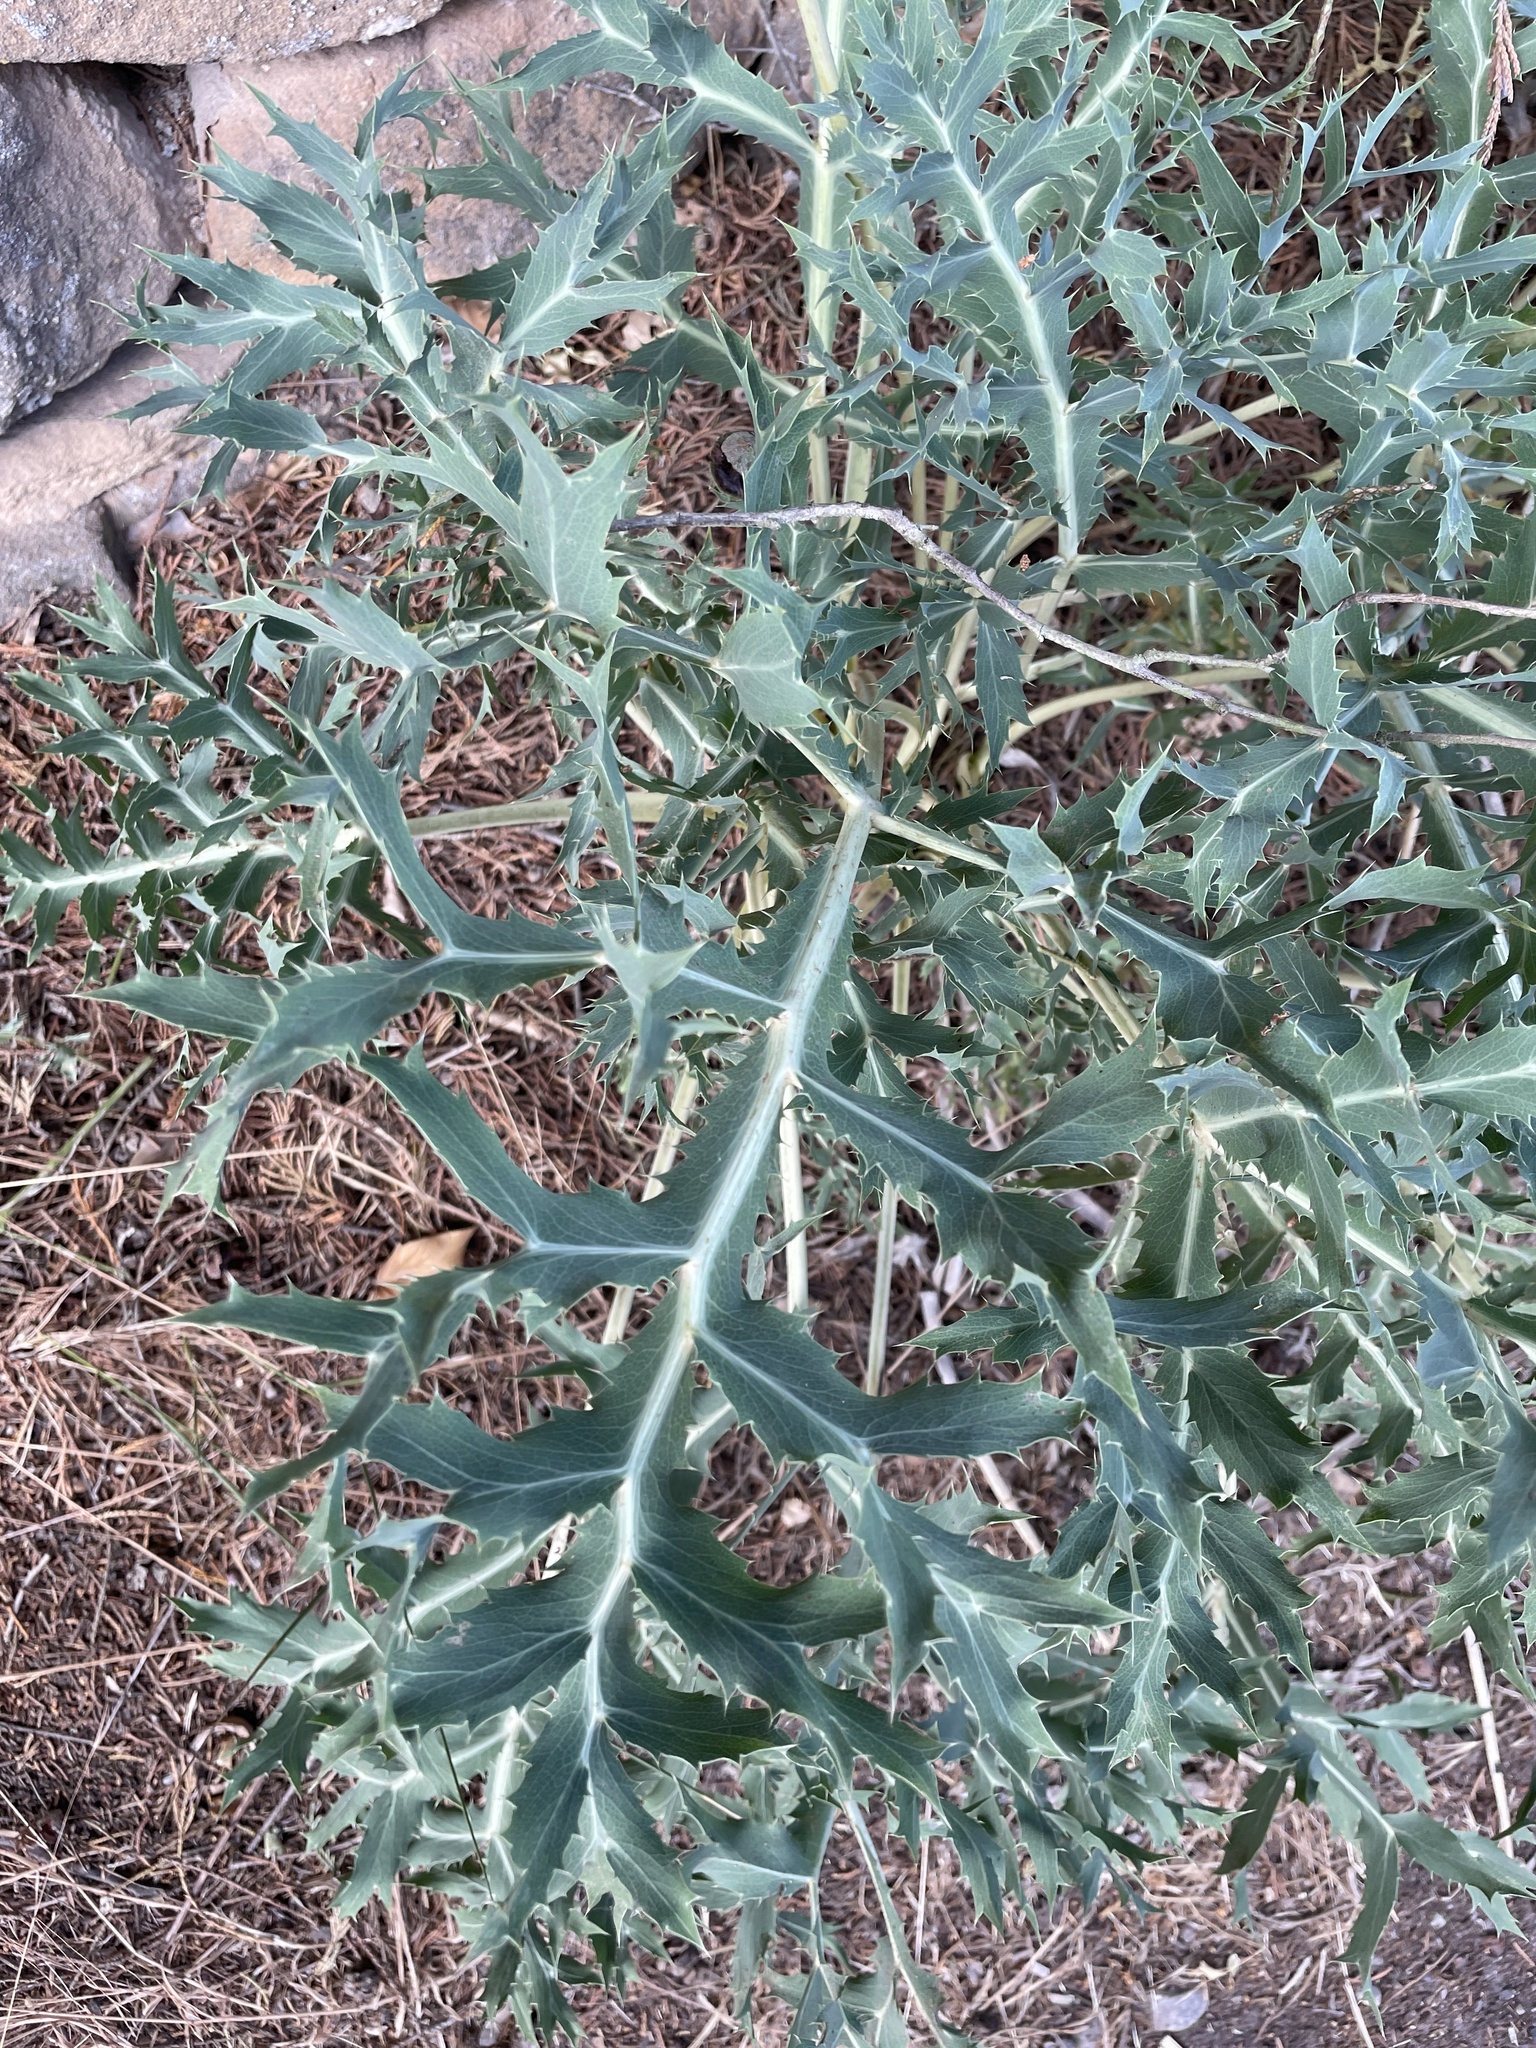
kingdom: Plantae
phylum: Tracheophyta
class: Magnoliopsida
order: Apiales
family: Apiaceae
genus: Eryngium
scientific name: Eryngium campestre
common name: Field eryngo
